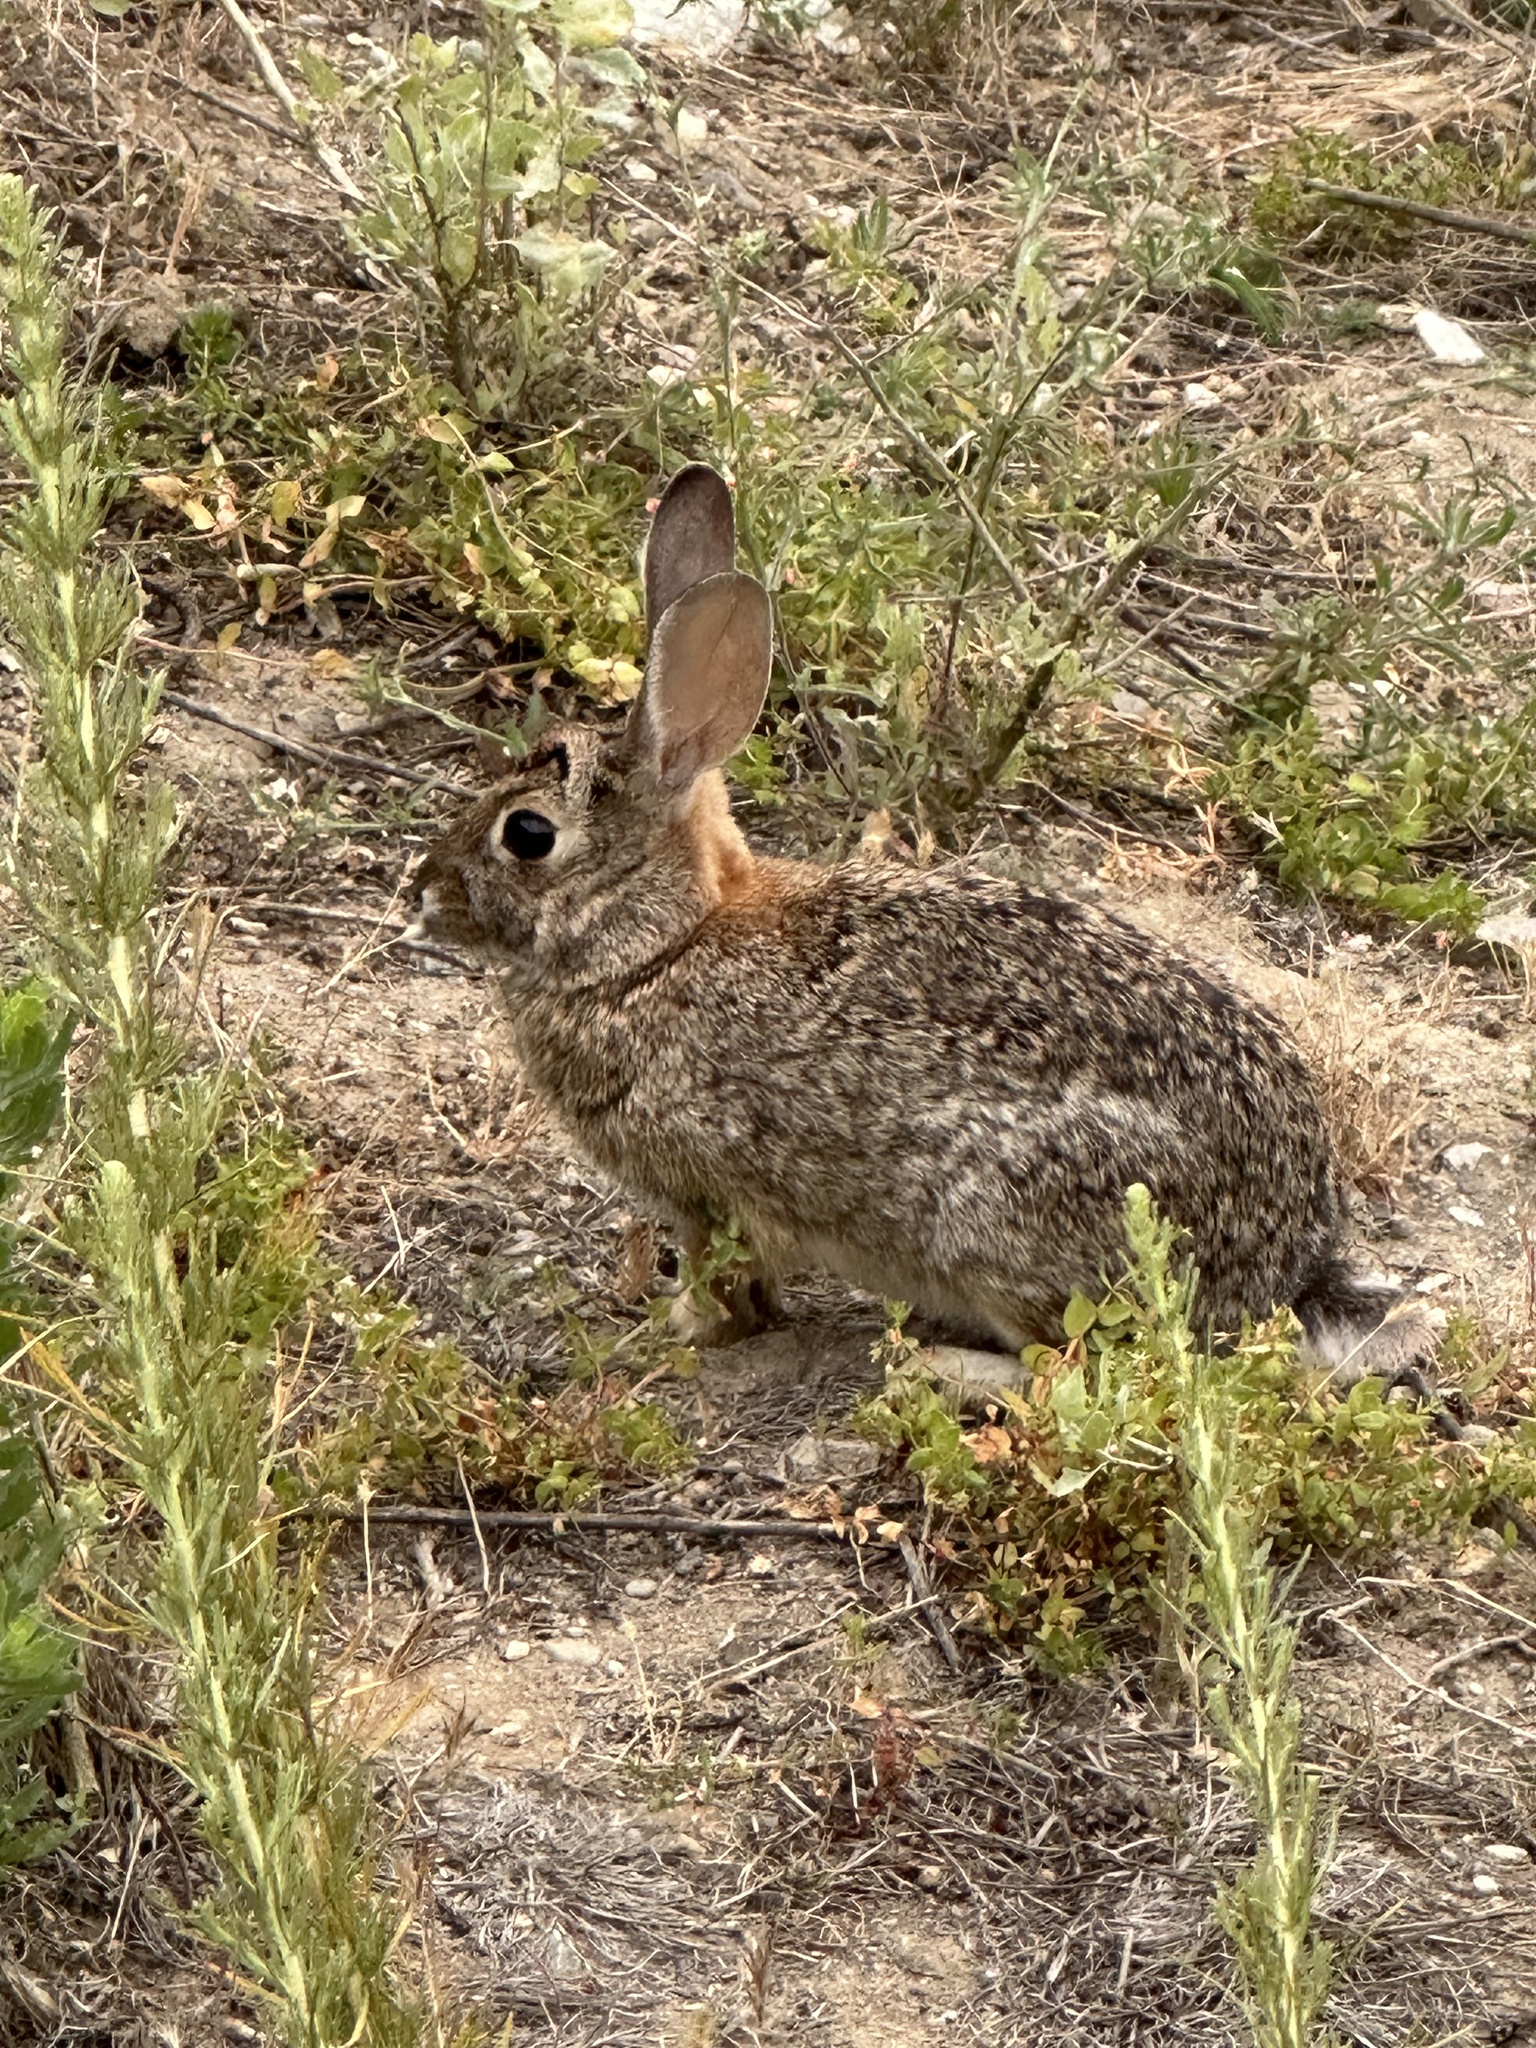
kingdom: Animalia
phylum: Chordata
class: Mammalia
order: Lagomorpha
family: Leporidae
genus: Sylvilagus
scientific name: Sylvilagus audubonii
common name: Desert cottontail
